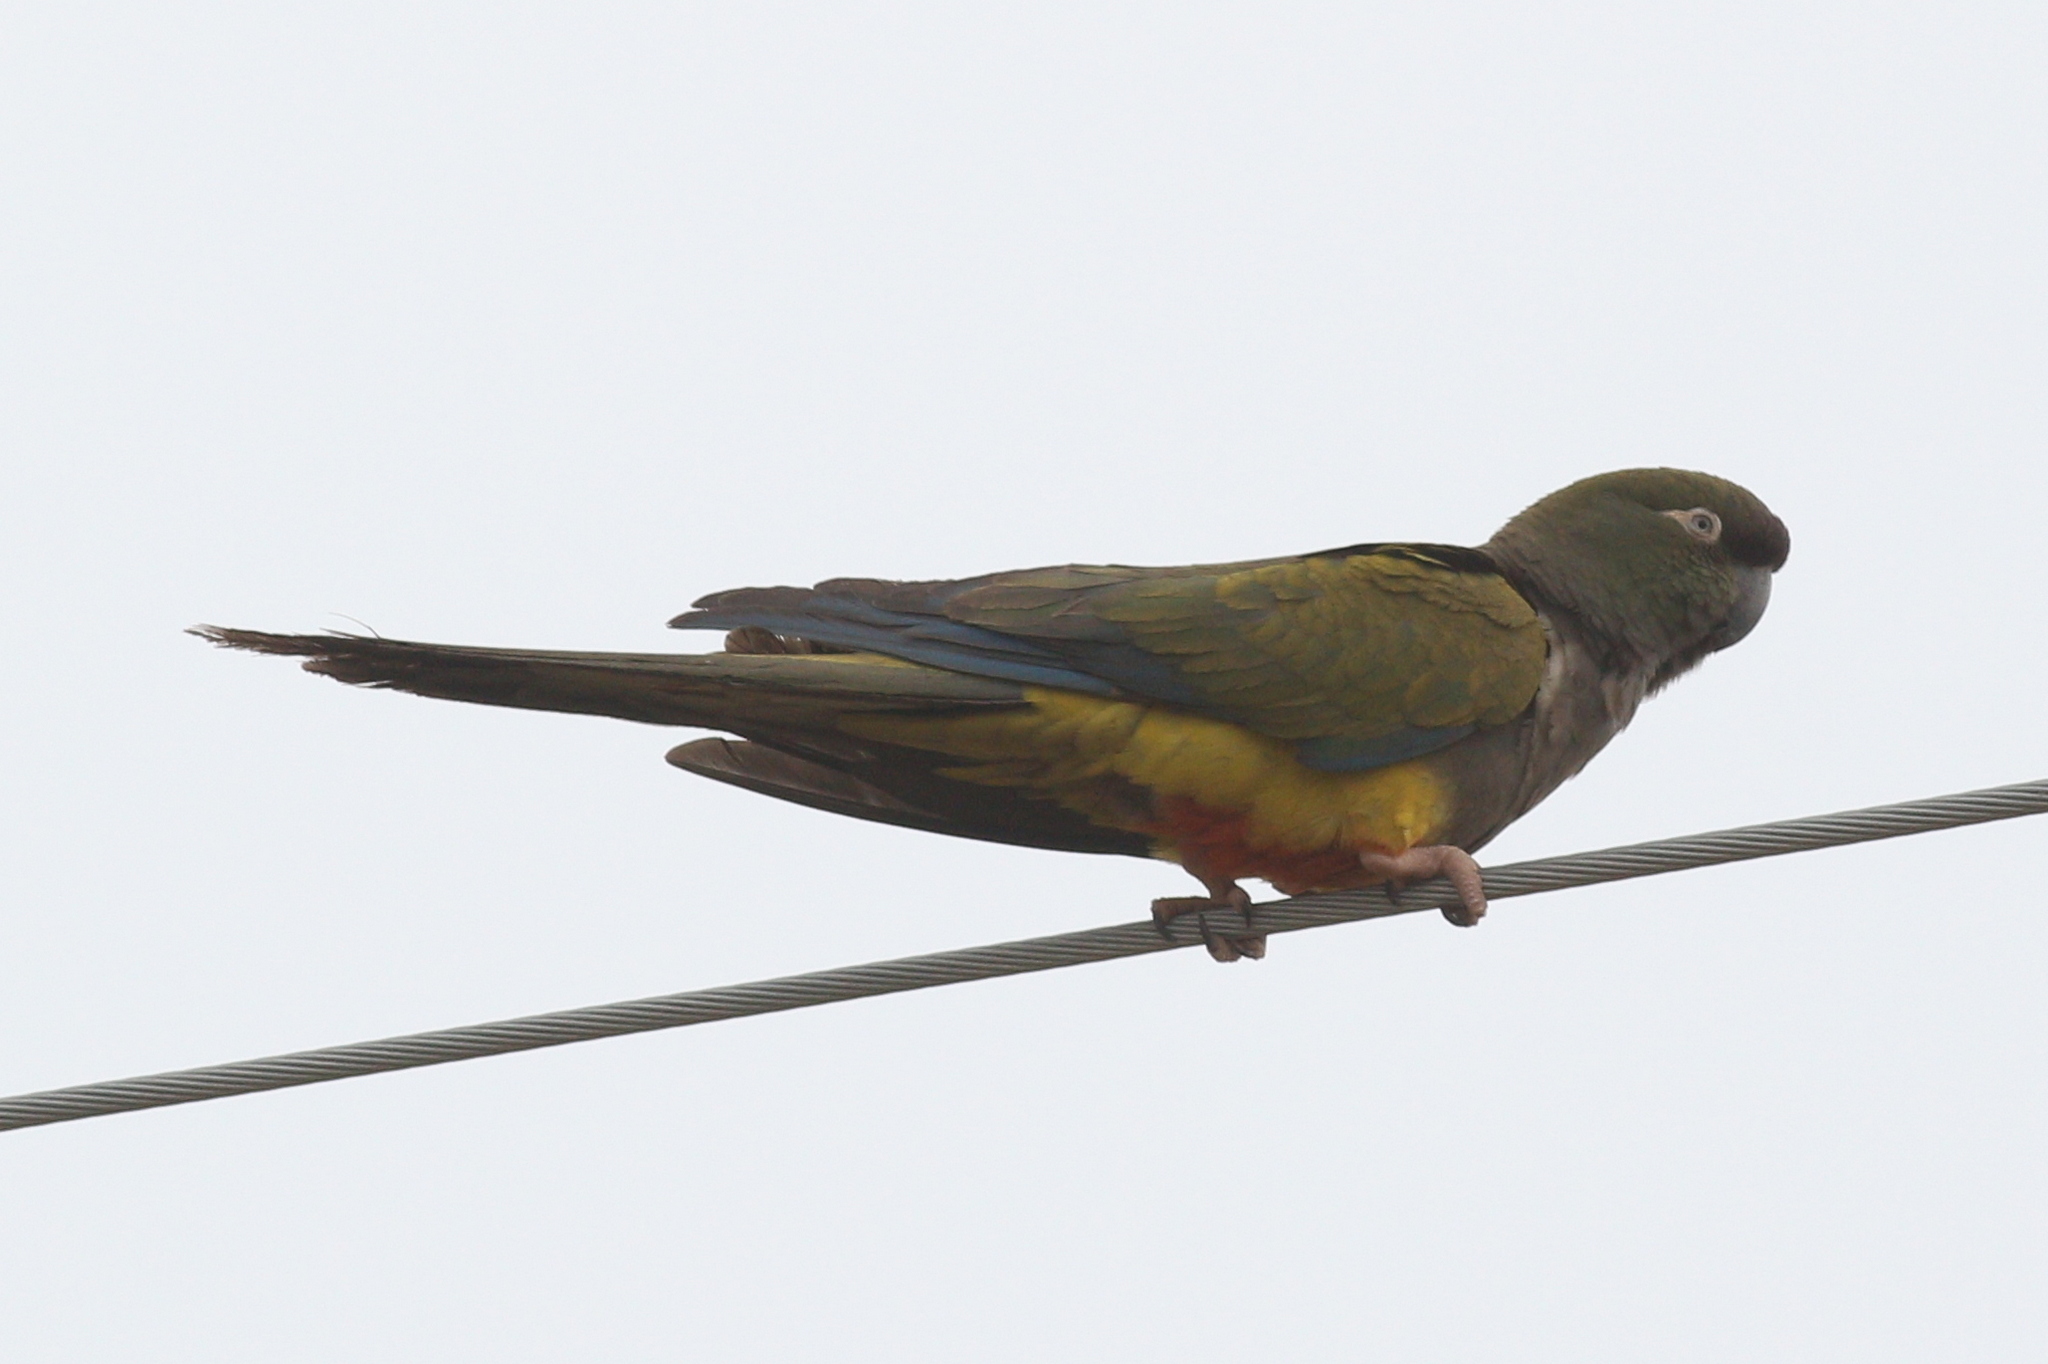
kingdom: Animalia
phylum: Chordata
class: Aves
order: Psittaciformes
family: Psittacidae
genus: Cyanoliseus
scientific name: Cyanoliseus patagonus
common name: Burrowing parrot
